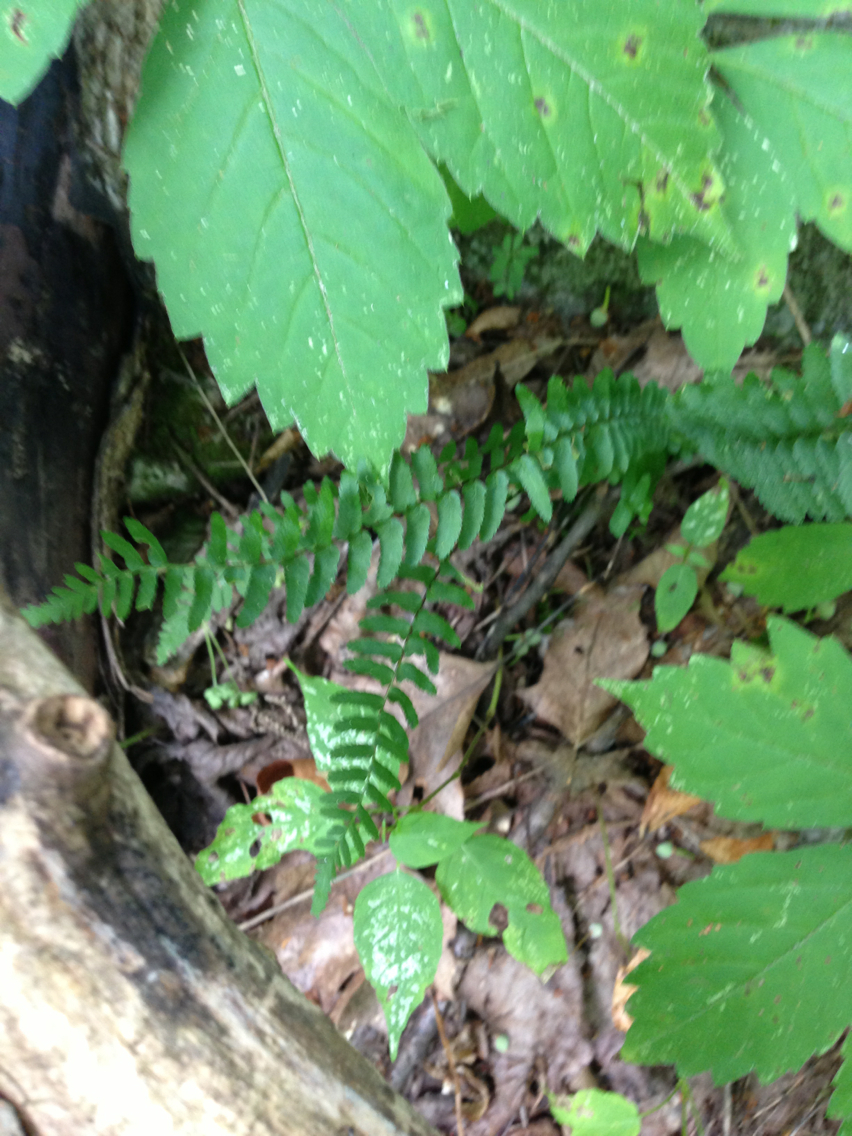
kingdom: Plantae
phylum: Tracheophyta
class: Polypodiopsida
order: Polypodiales
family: Aspleniaceae
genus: Asplenium
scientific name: Asplenium platyneuron
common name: Ebony spleenwort
